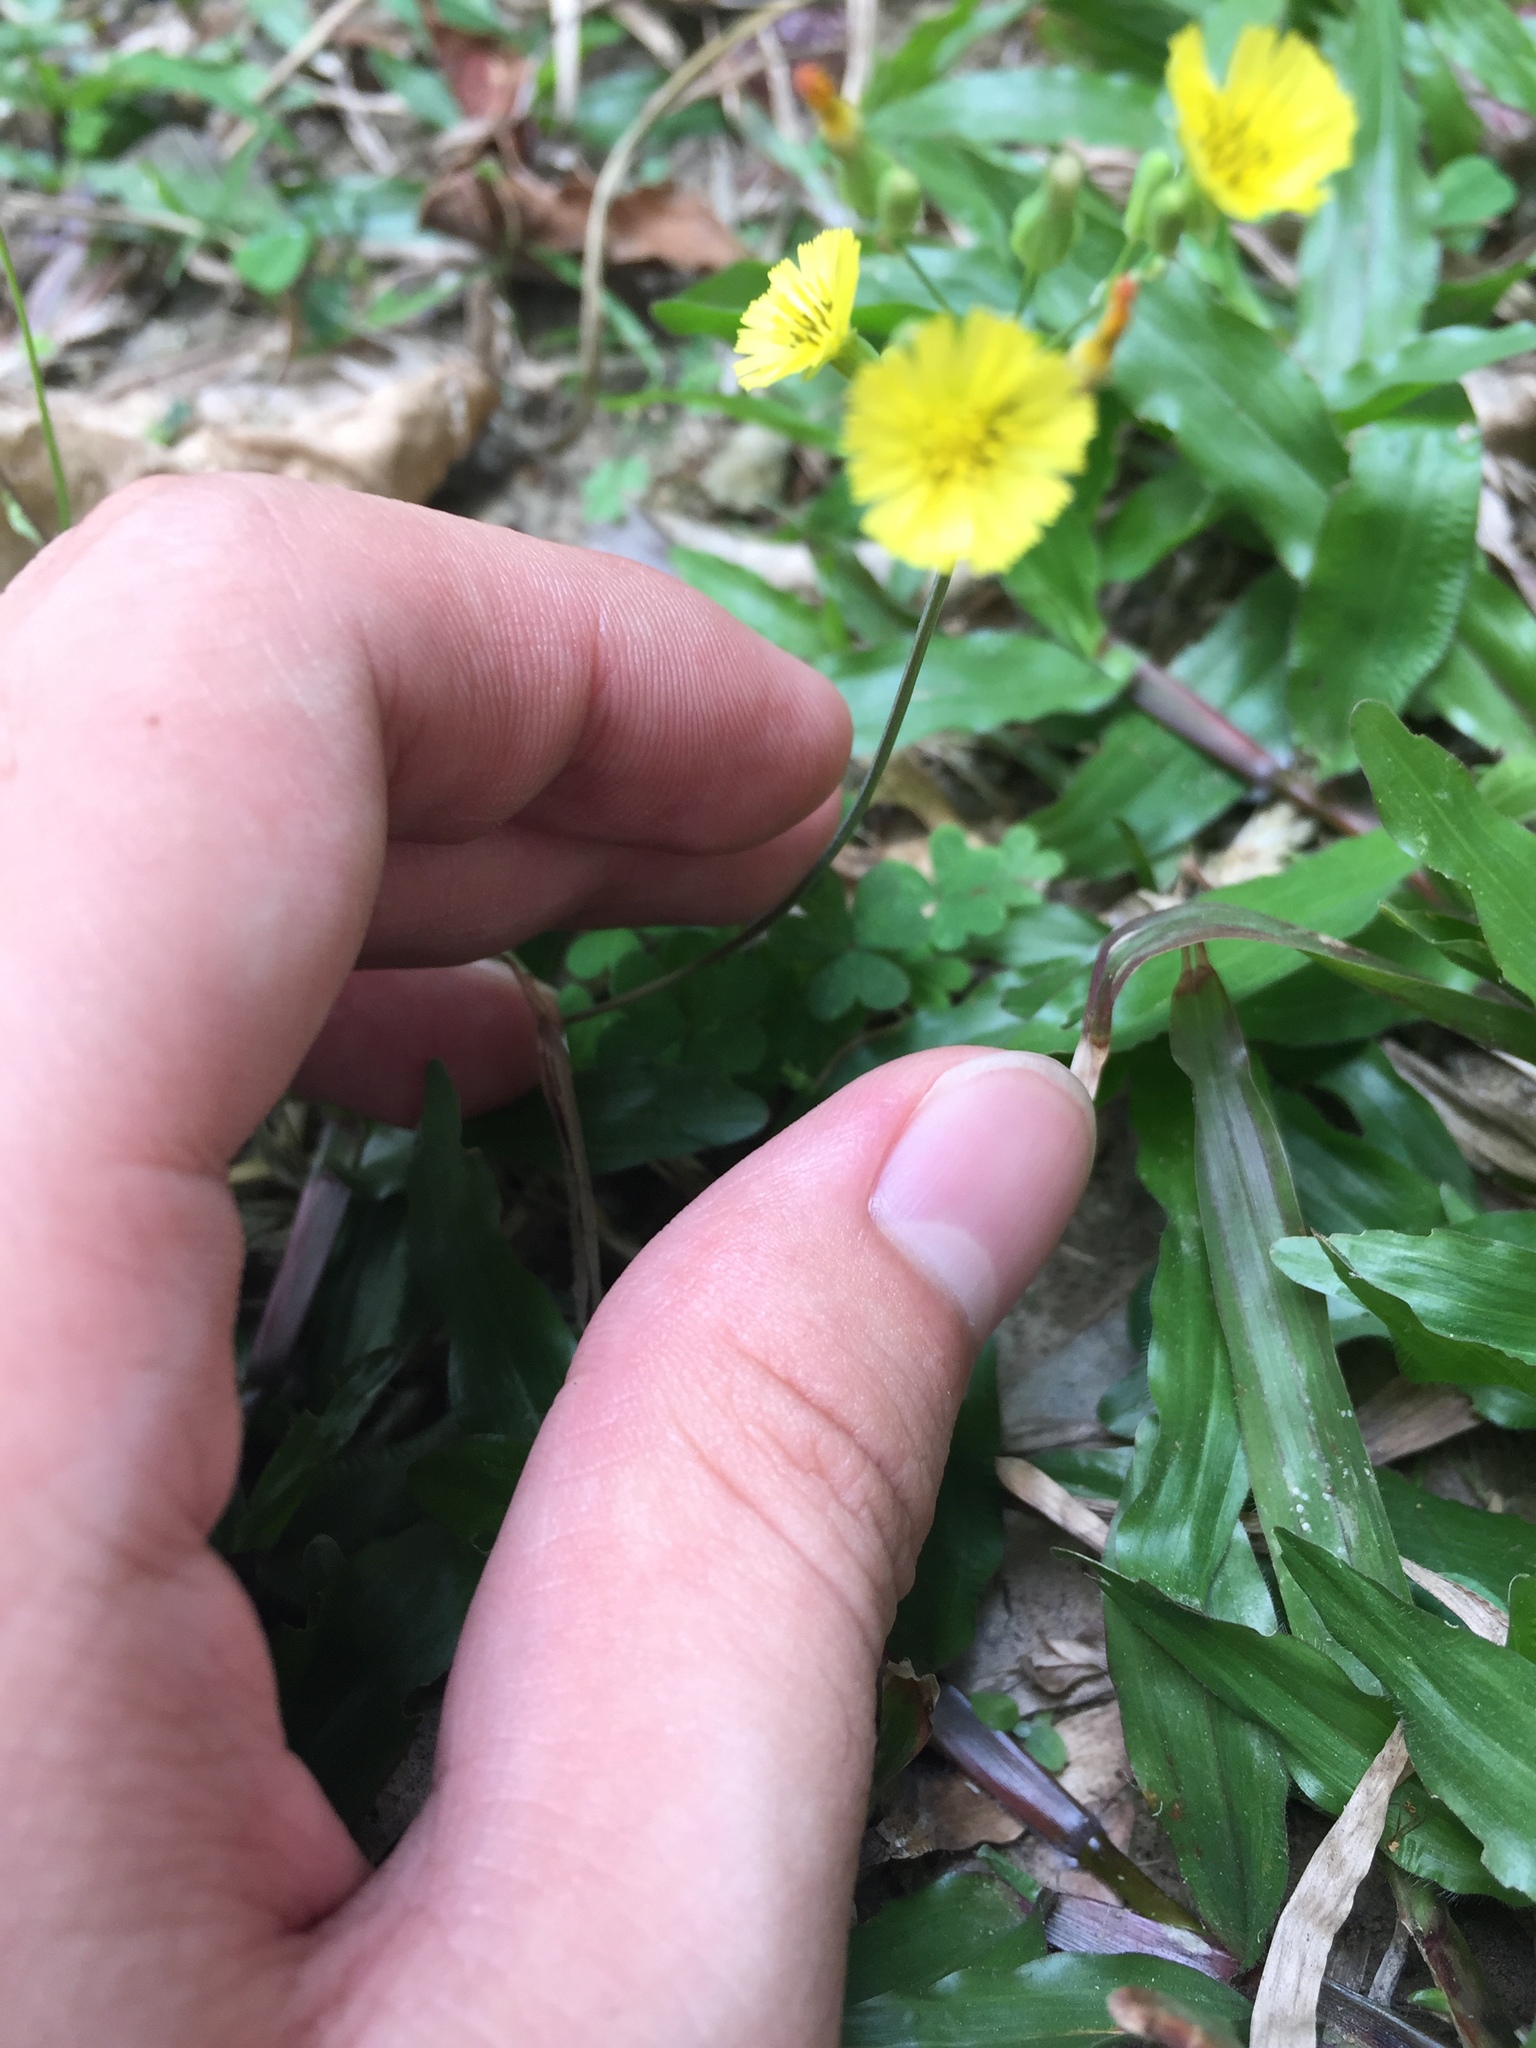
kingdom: Plantae
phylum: Tracheophyta
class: Magnoliopsida
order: Asterales
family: Asteraceae
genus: Youngia
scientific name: Youngia japonica
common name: Oriental false hawksbeard
